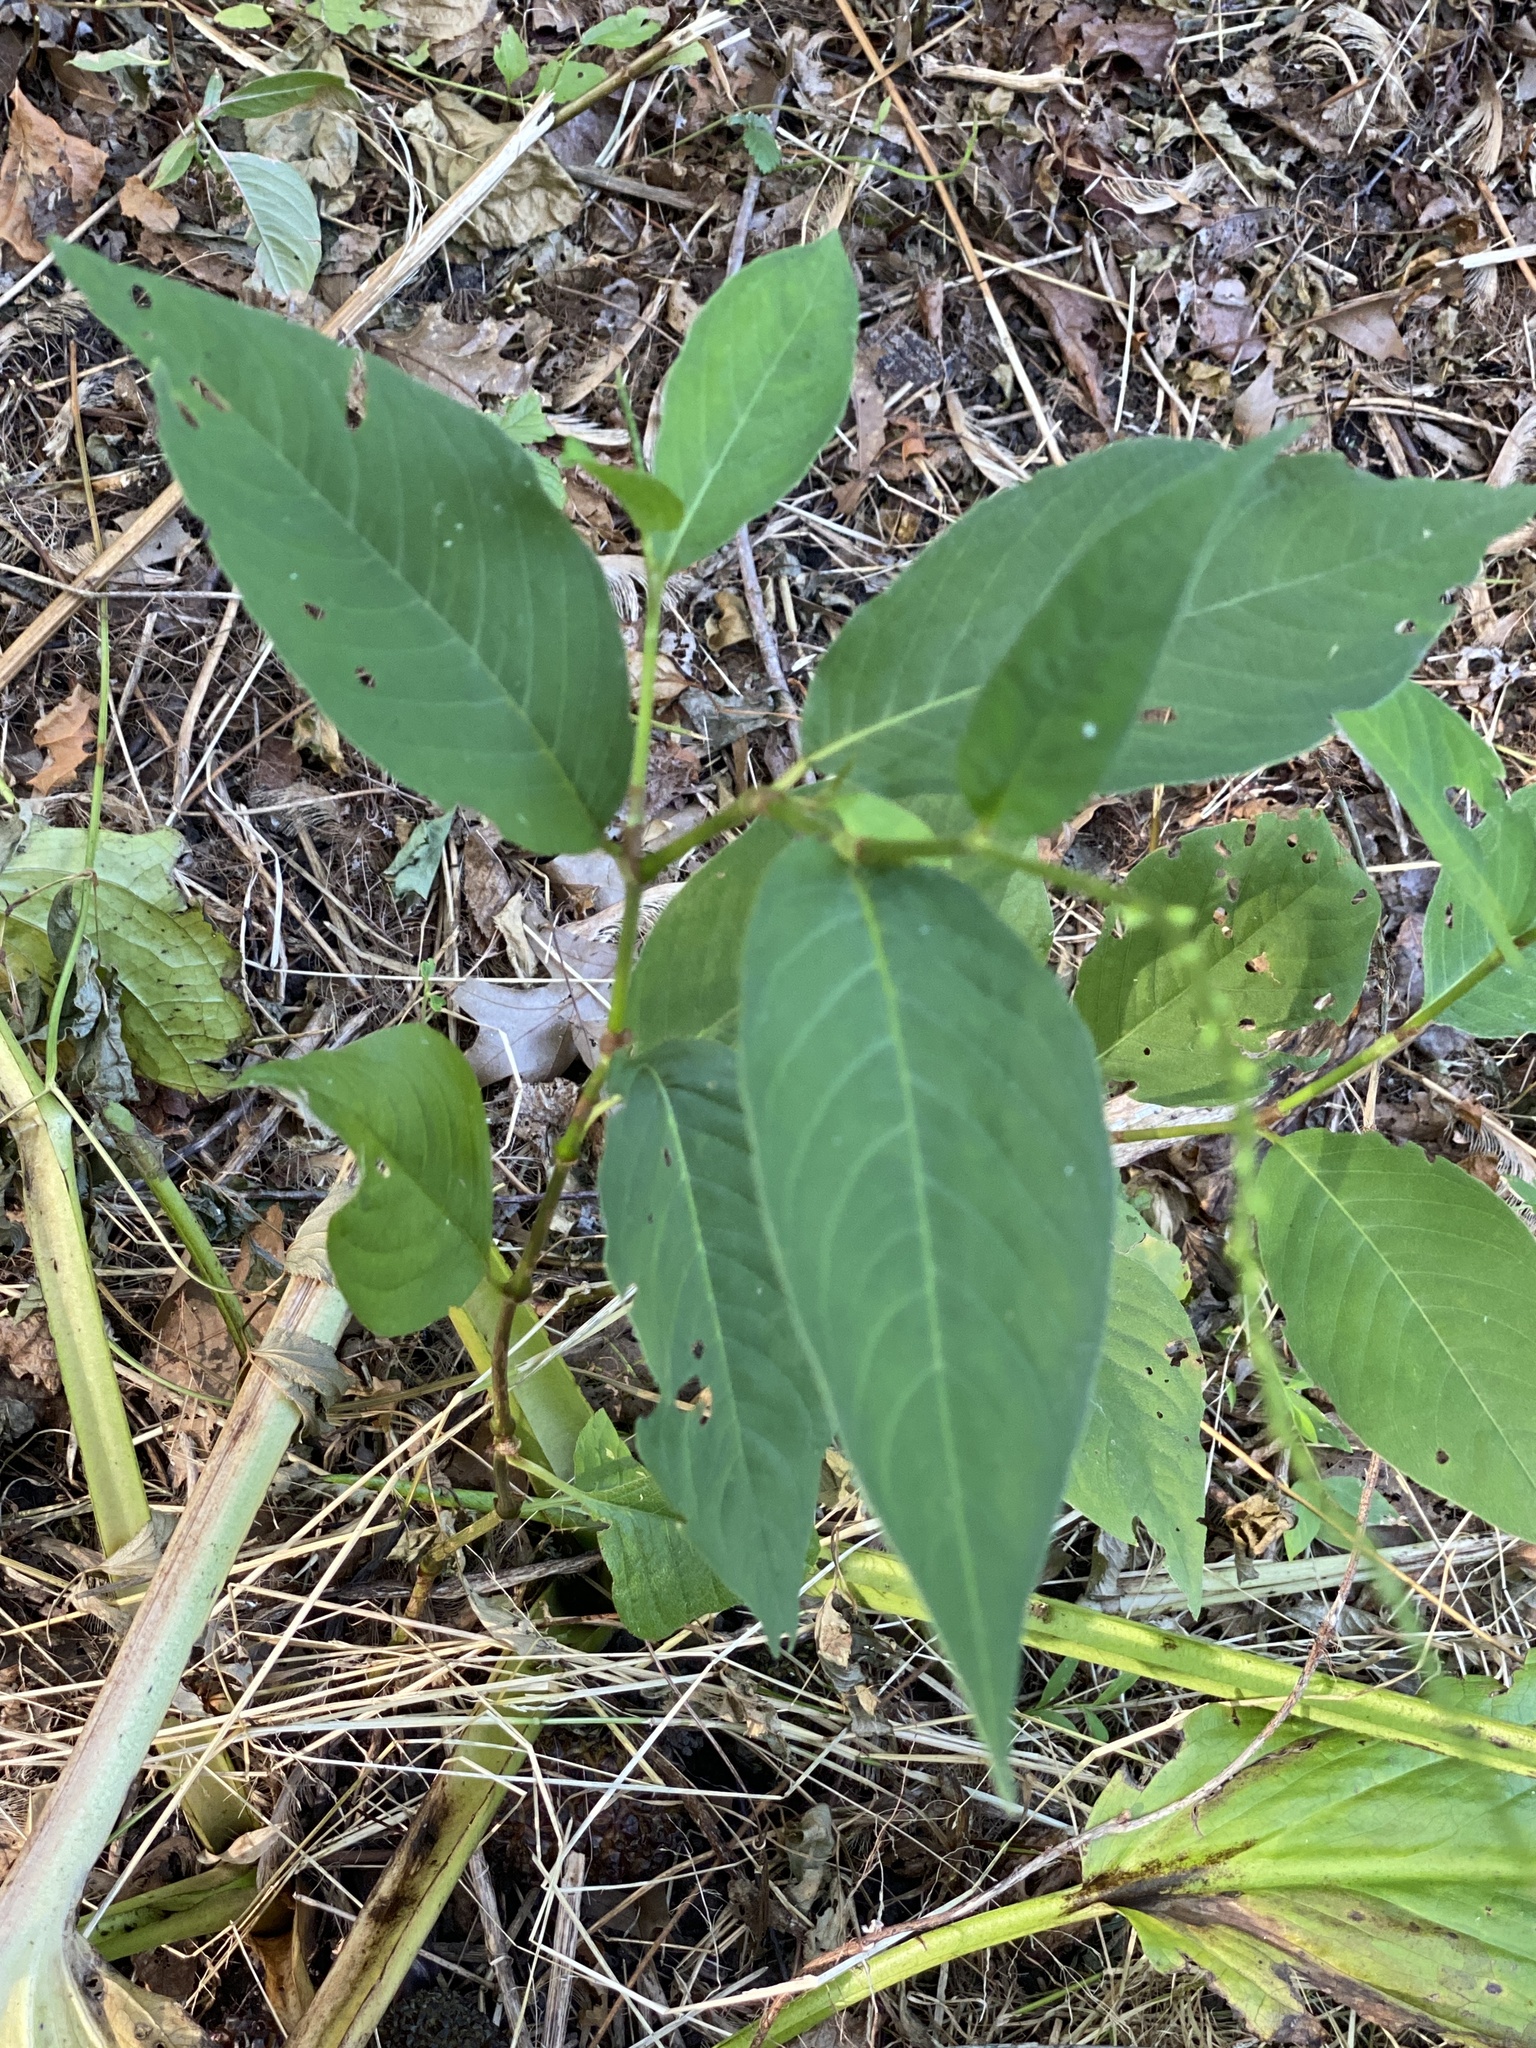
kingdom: Plantae
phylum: Tracheophyta
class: Magnoliopsida
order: Caryophyllales
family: Polygonaceae
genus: Persicaria
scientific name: Persicaria virginiana
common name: Jumpseed
